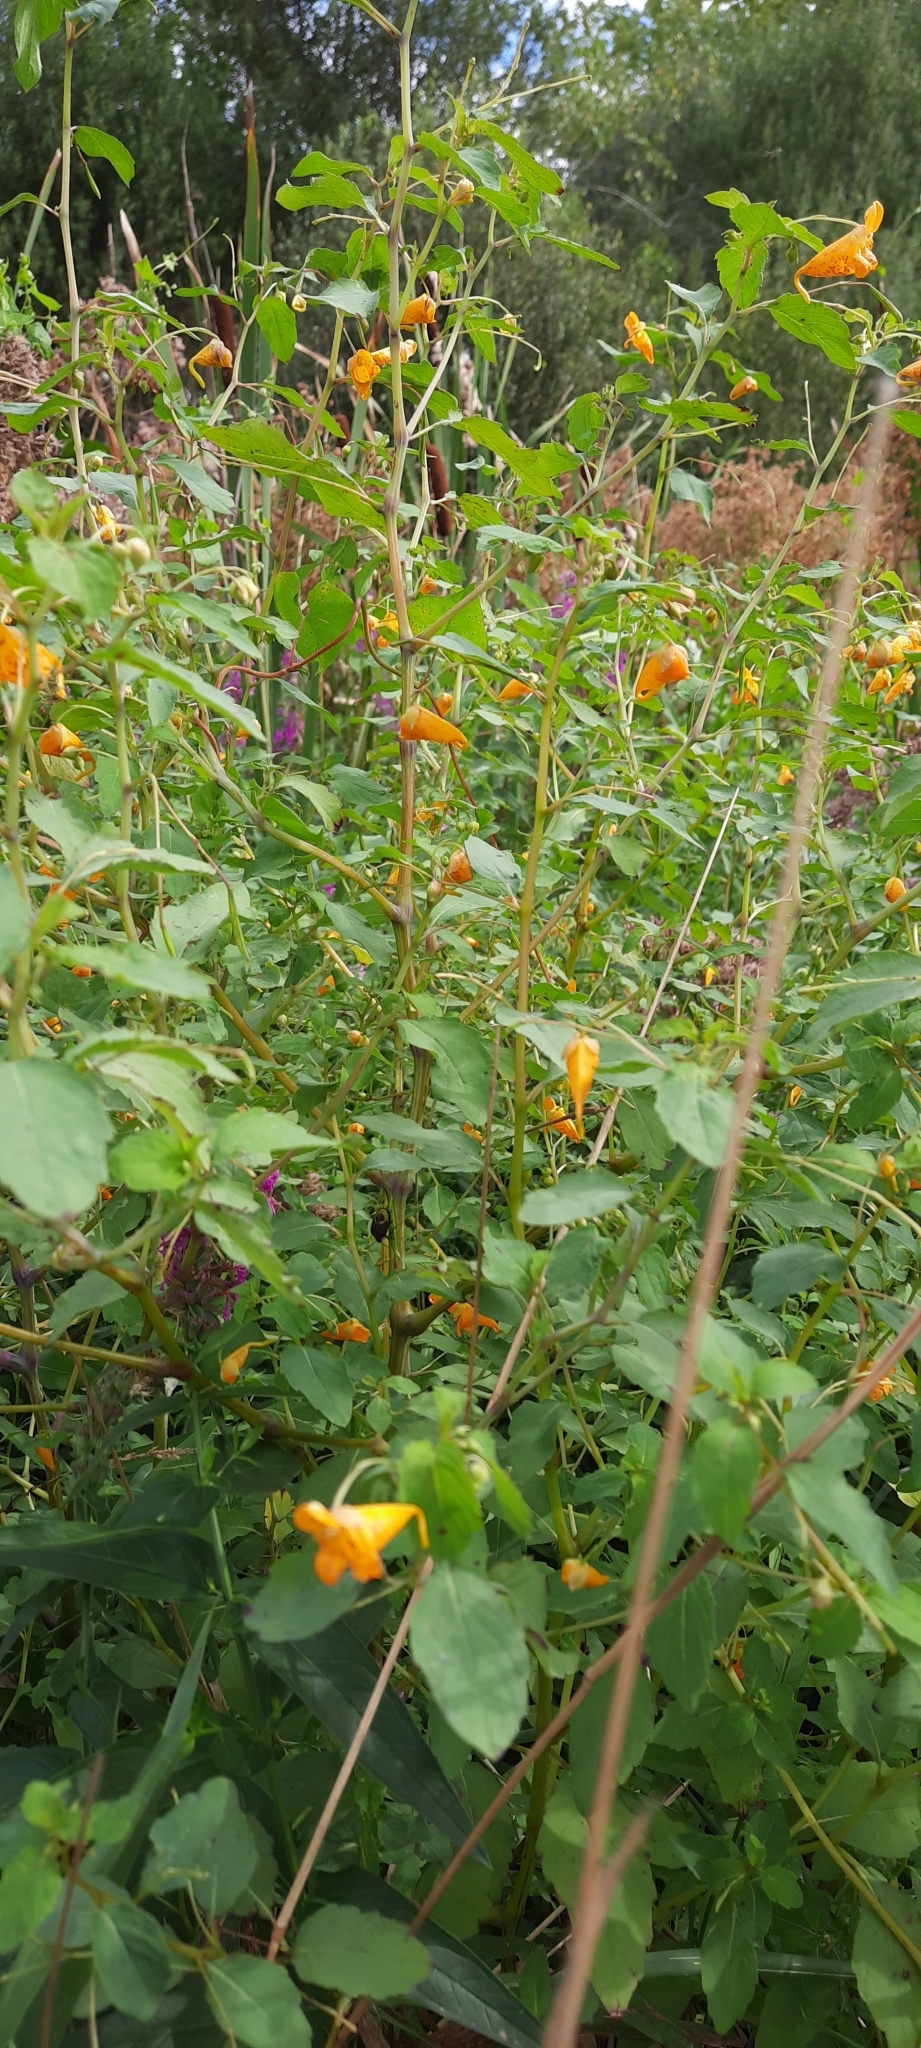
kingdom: Plantae
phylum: Tracheophyta
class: Magnoliopsida
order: Ericales
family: Balsaminaceae
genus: Impatiens
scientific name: Impatiens capensis
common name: Orange balsam
